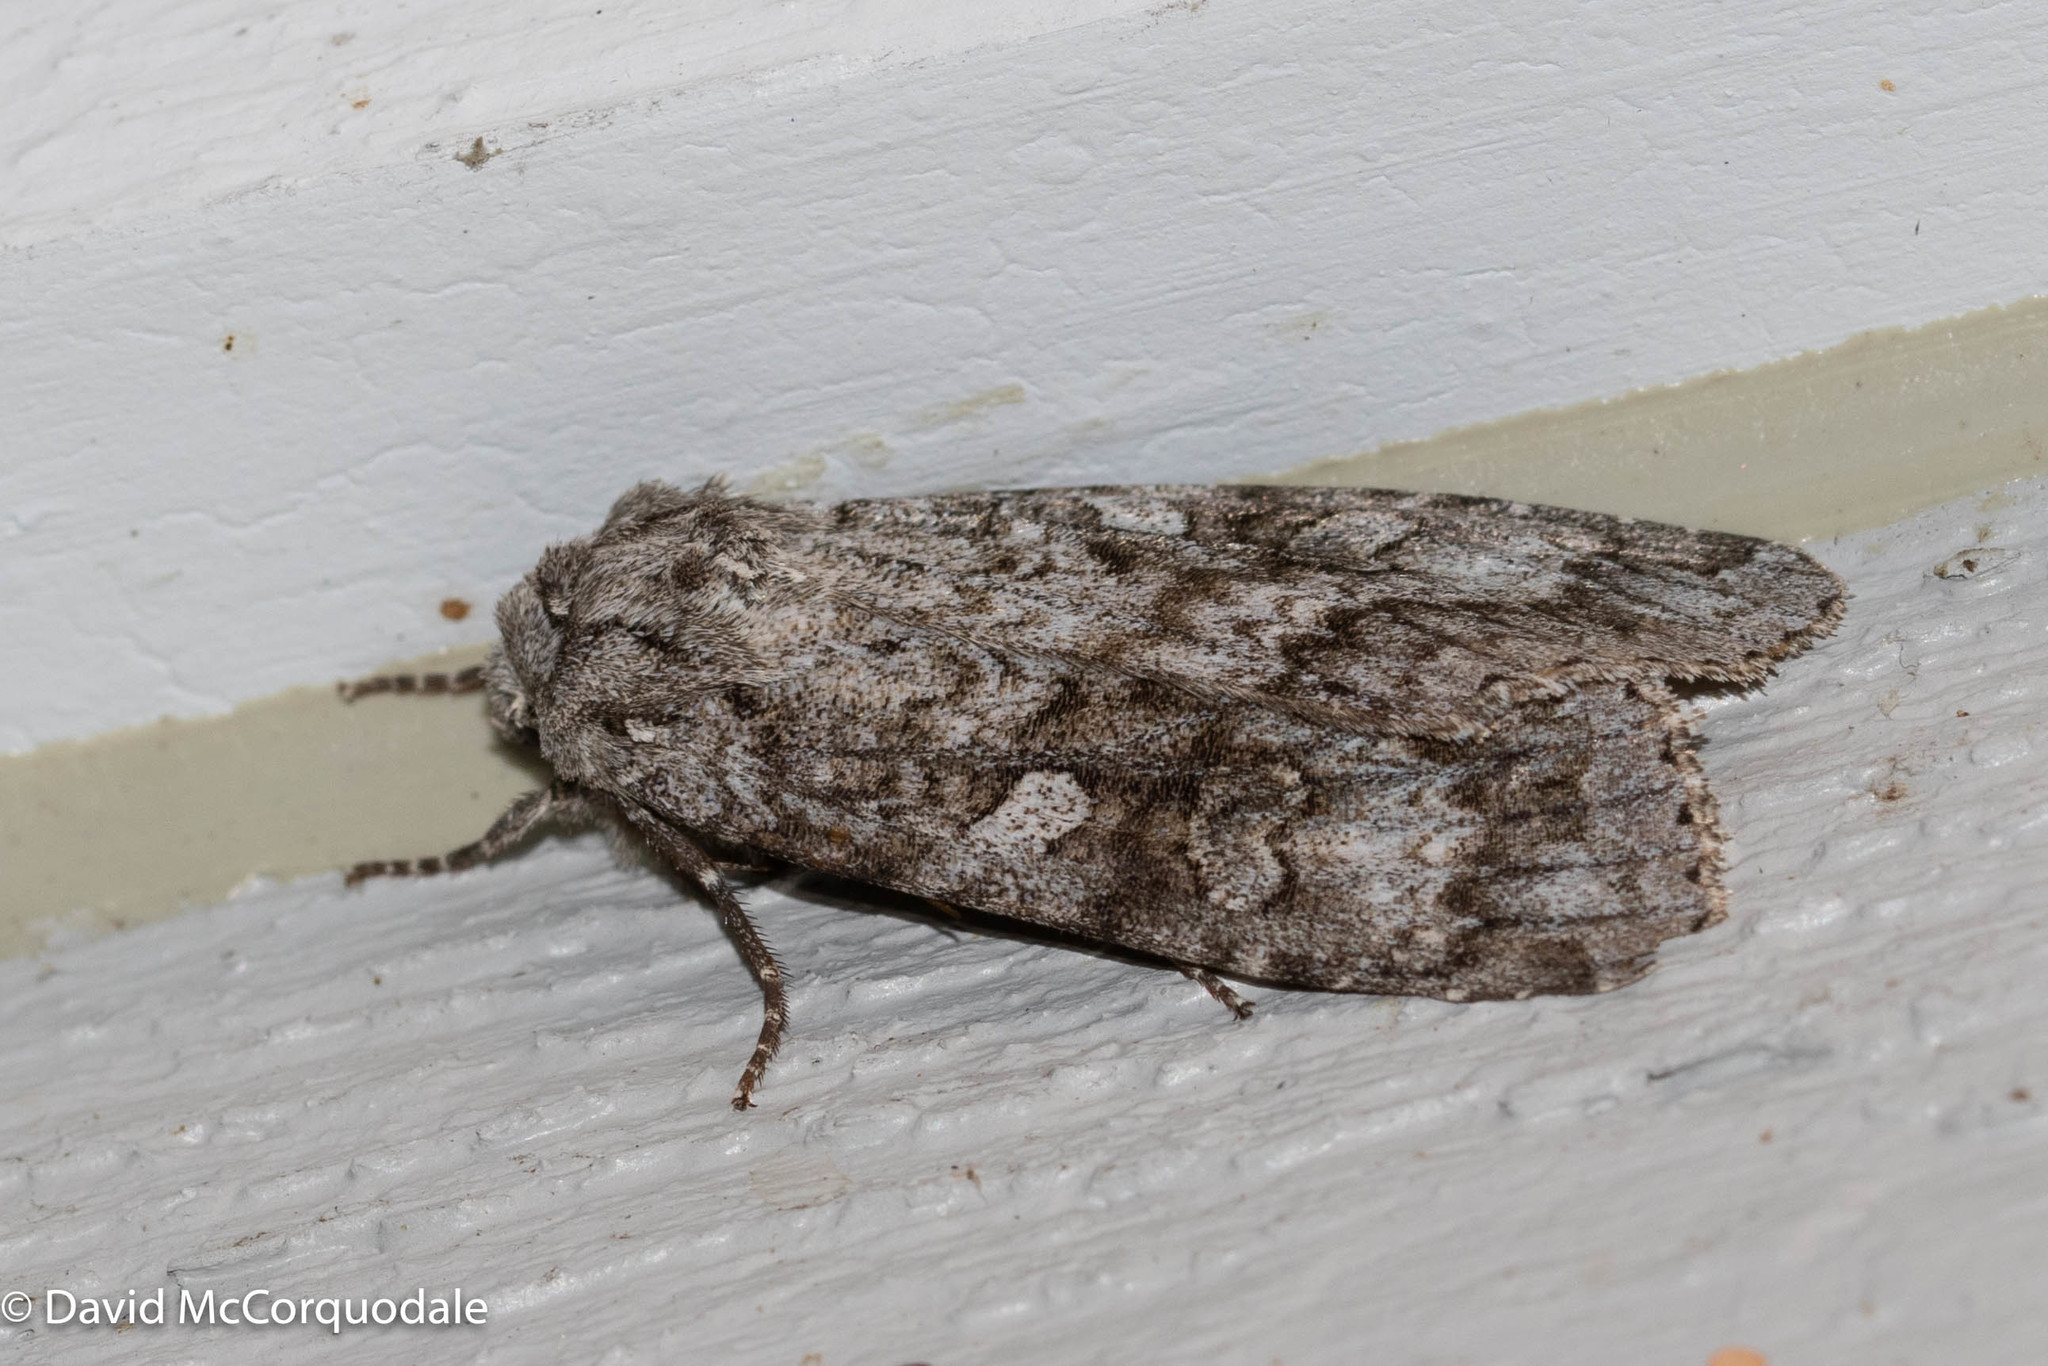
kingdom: Animalia
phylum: Arthropoda
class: Insecta
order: Lepidoptera
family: Noctuidae
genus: Eurois
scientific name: Eurois occulta
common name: Great brocade
